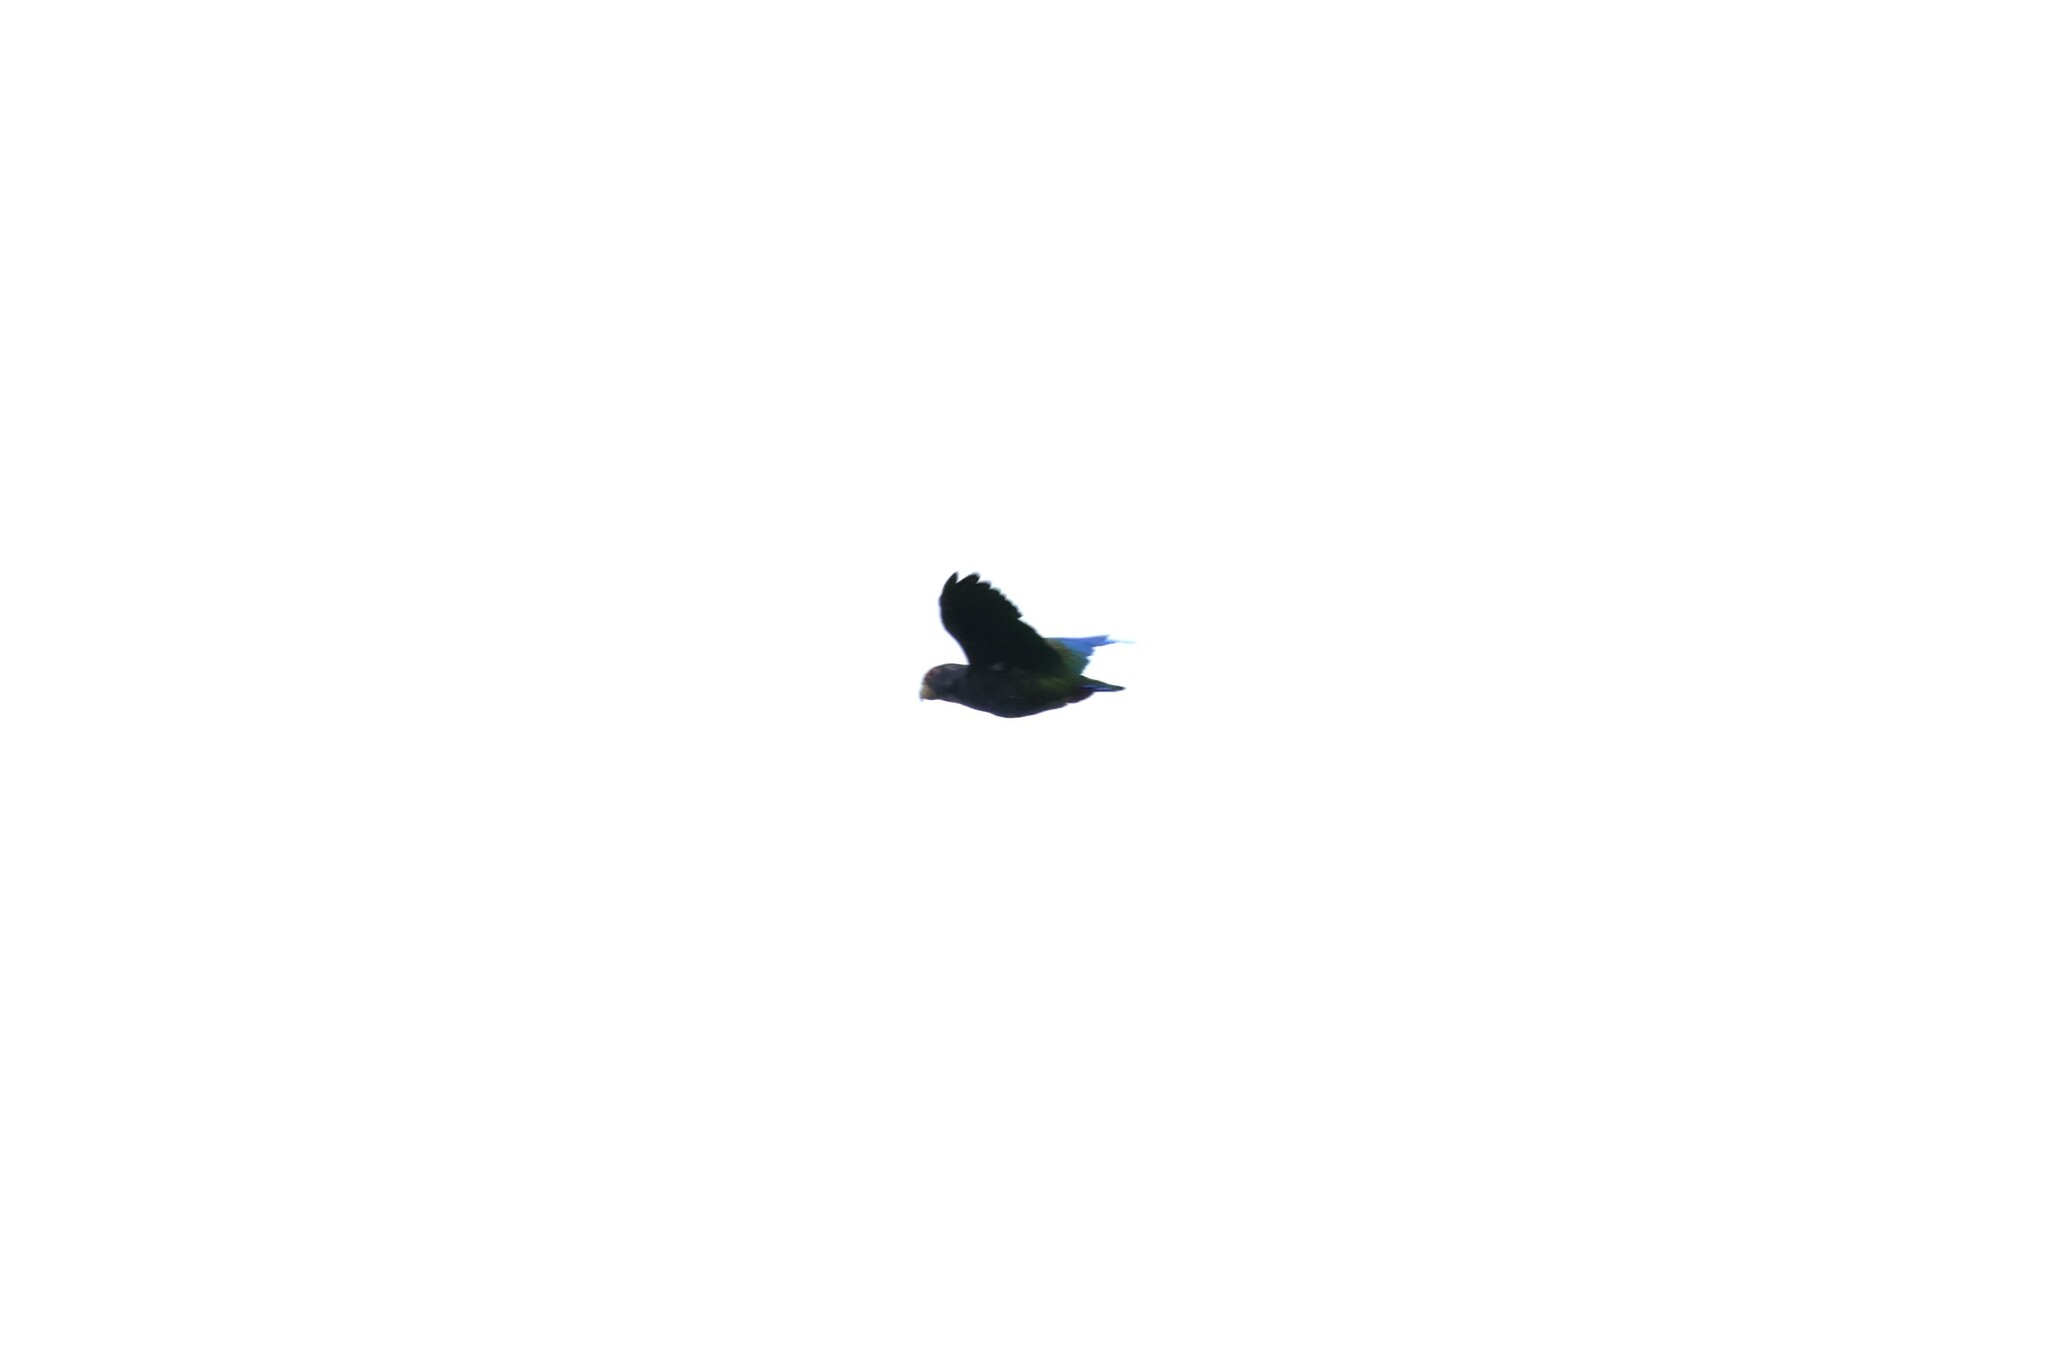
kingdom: Animalia
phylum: Chordata
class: Aves
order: Psittaciformes
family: Psittacidae
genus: Pionus
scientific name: Pionus senilis
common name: White-crowned parrot
